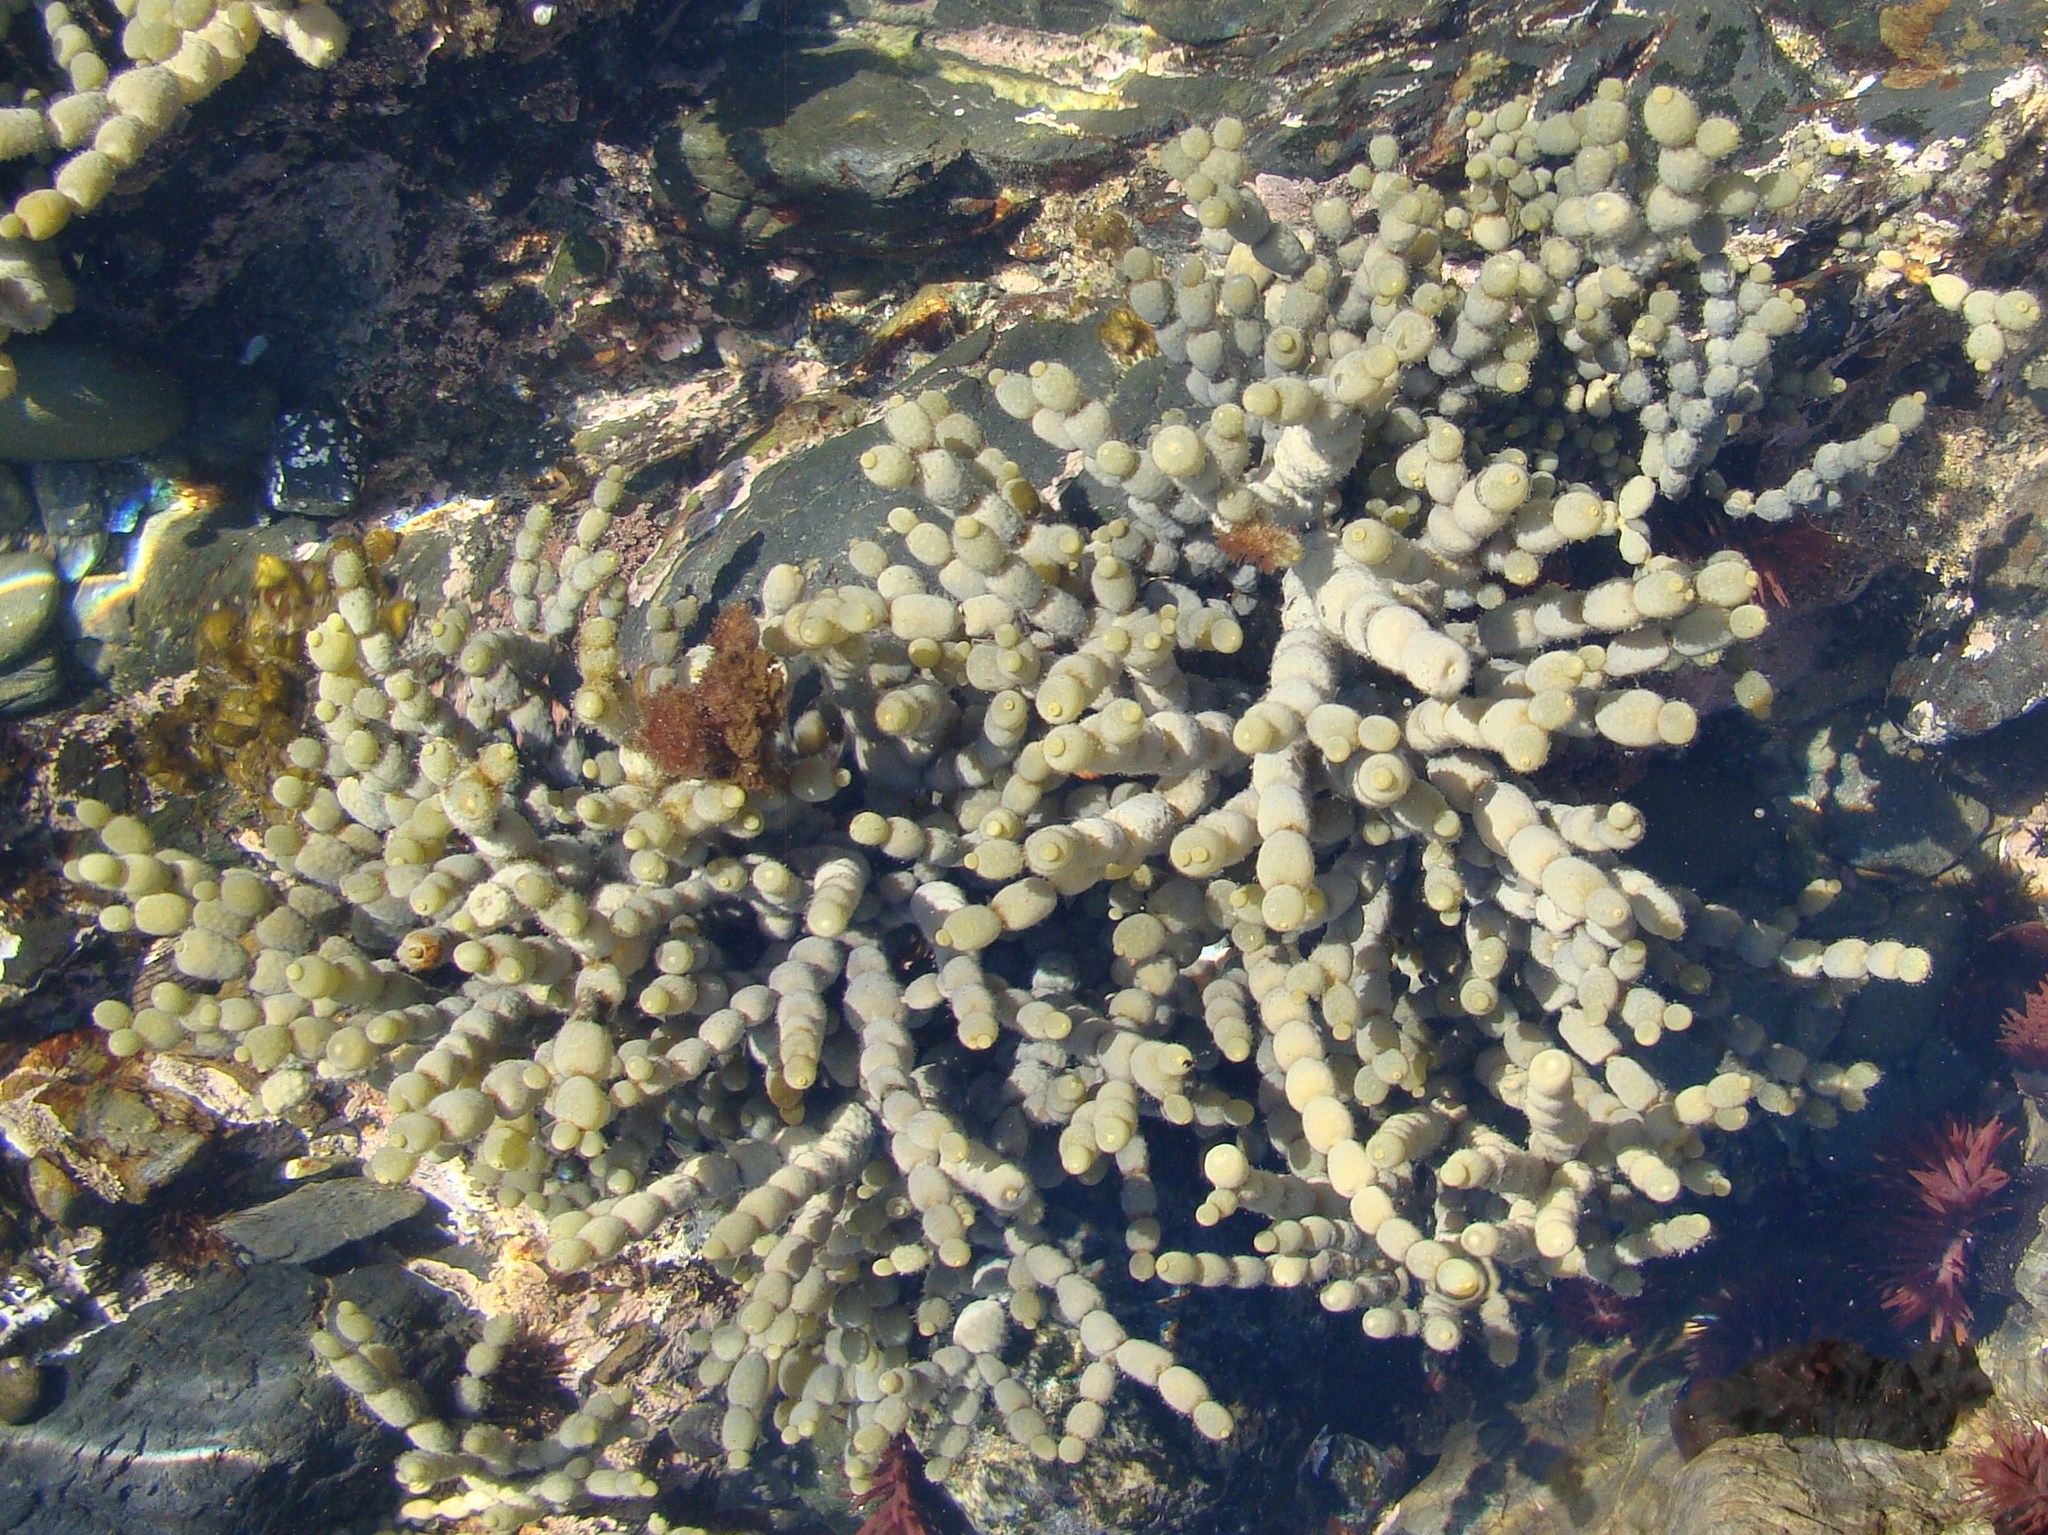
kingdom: Chromista
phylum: Ochrophyta
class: Phaeophyceae
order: Fucales
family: Hormosiraceae
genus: Hormosira
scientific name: Hormosira banksii
